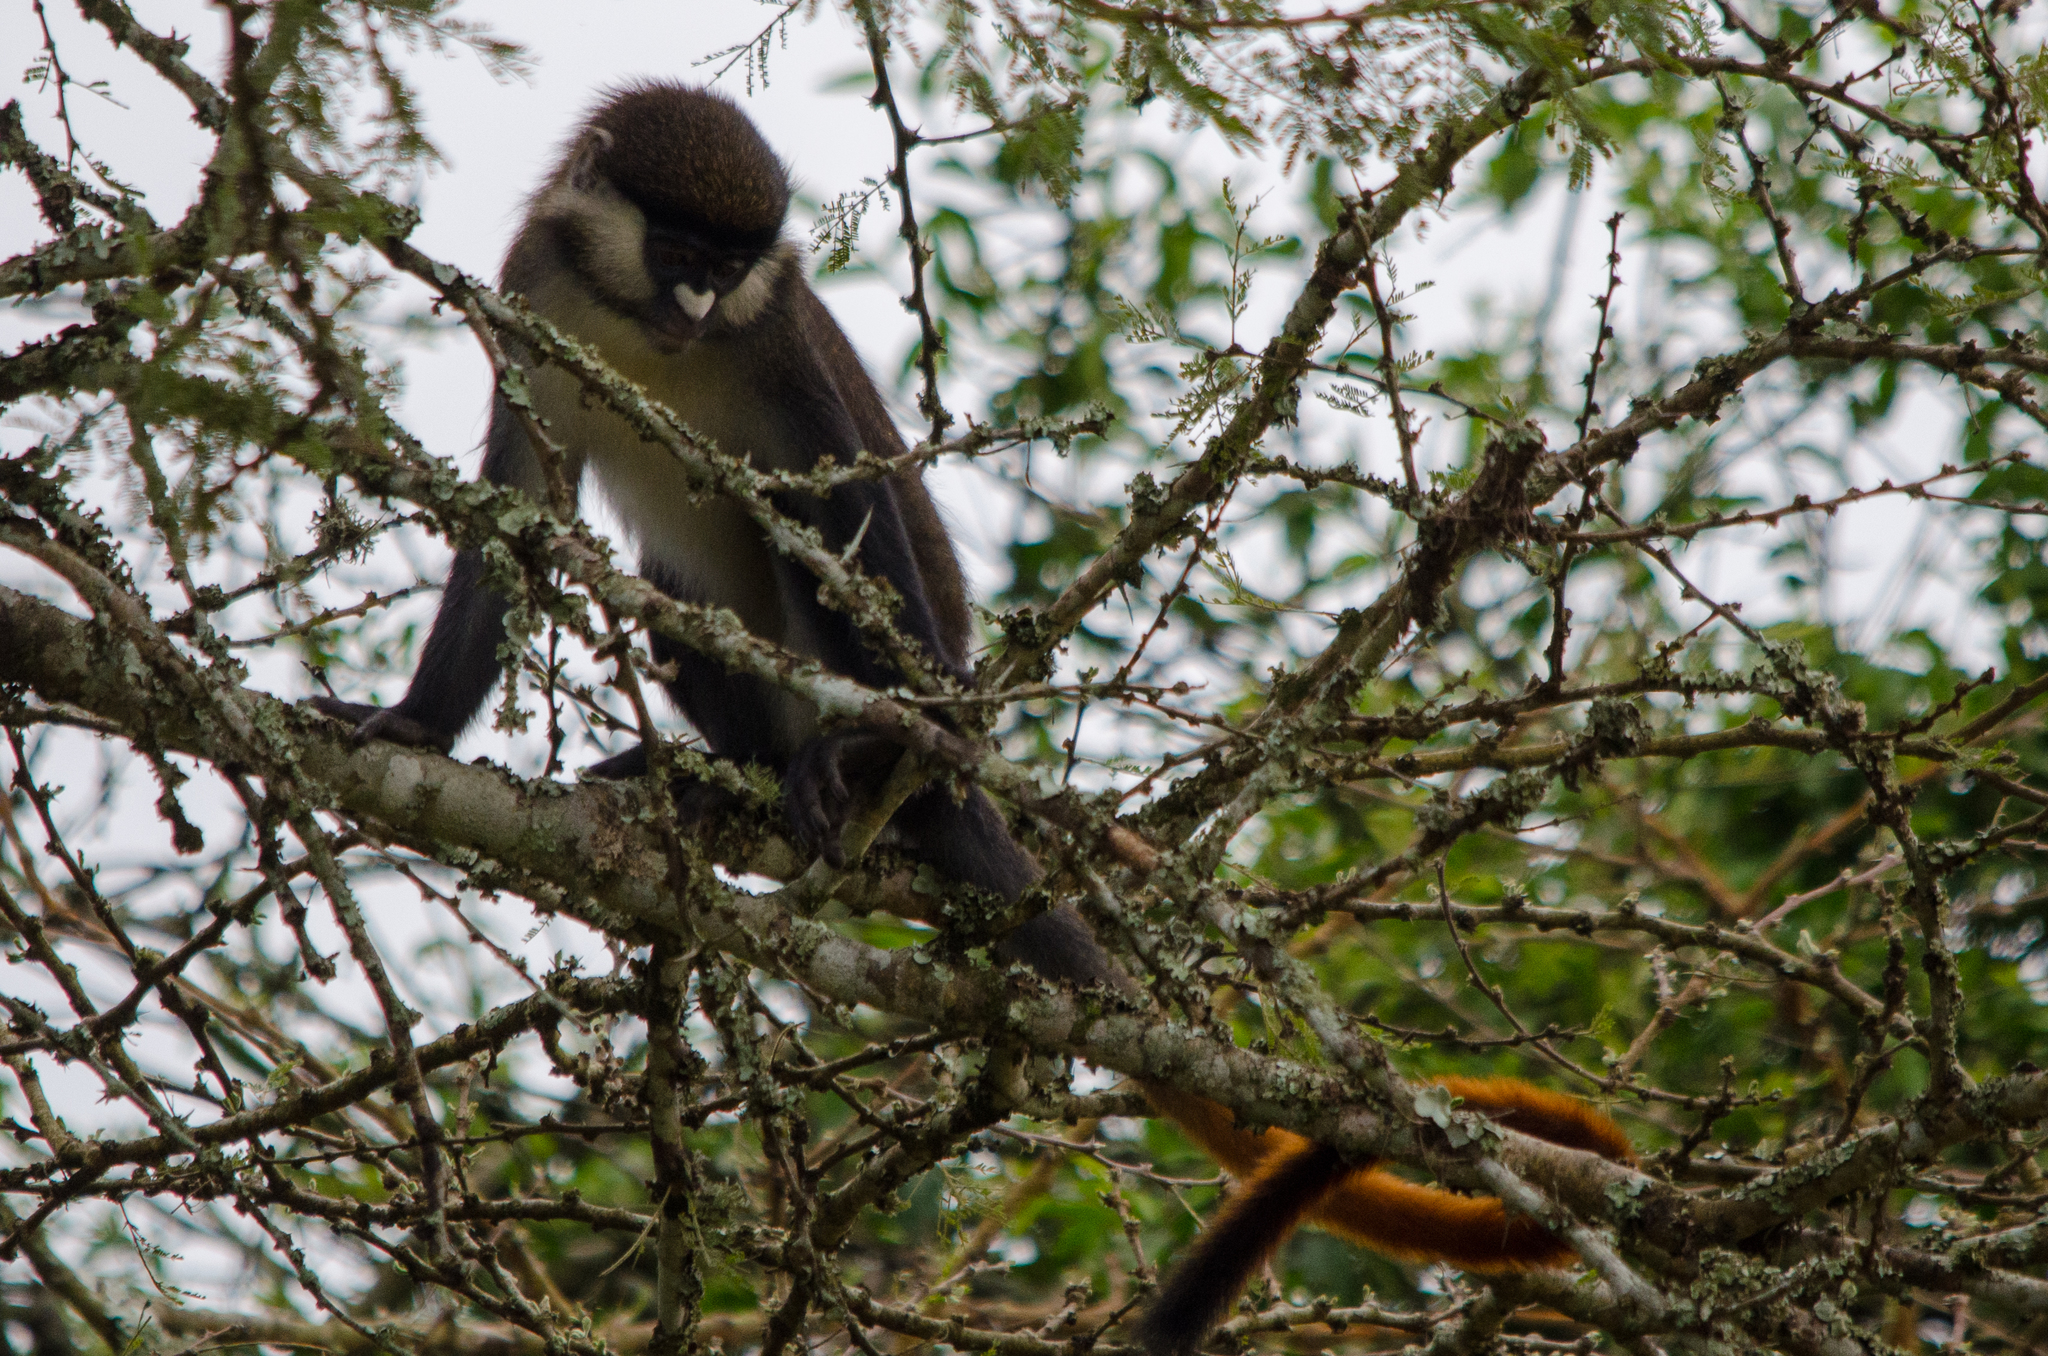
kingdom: Animalia
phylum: Chordata
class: Mammalia
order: Primates
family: Cercopithecidae
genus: Cercopithecus
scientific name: Cercopithecus ascanius
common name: Red-tailed monkey
